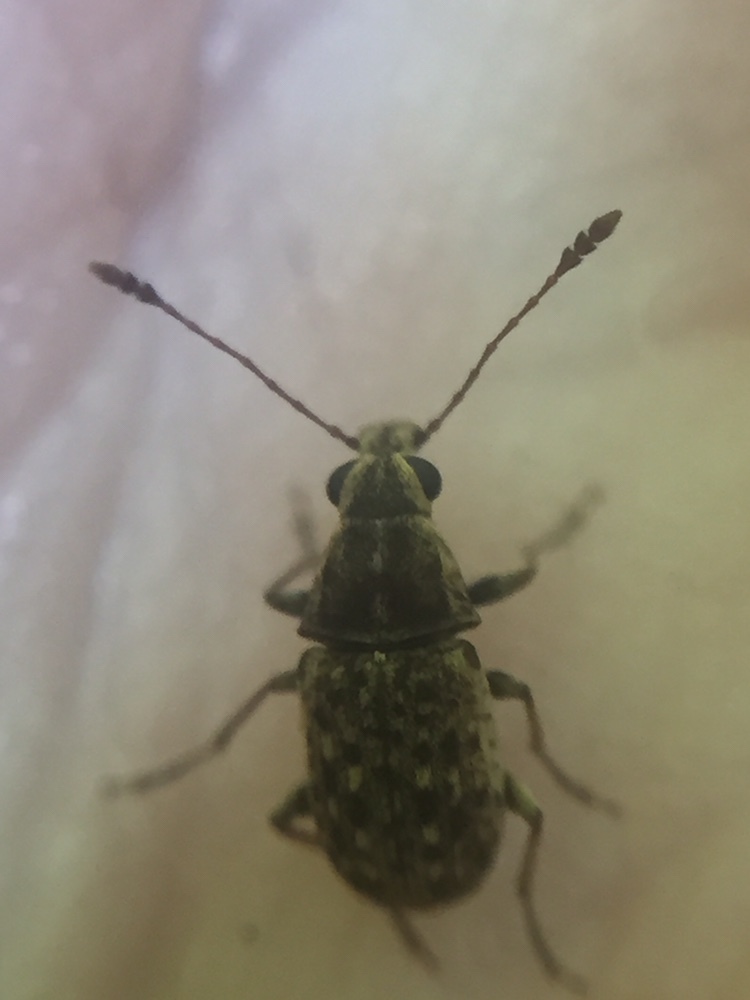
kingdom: Animalia
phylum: Arthropoda
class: Insecta
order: Coleoptera
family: Anthribidae
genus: Cacephatus
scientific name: Cacephatus huttoni
